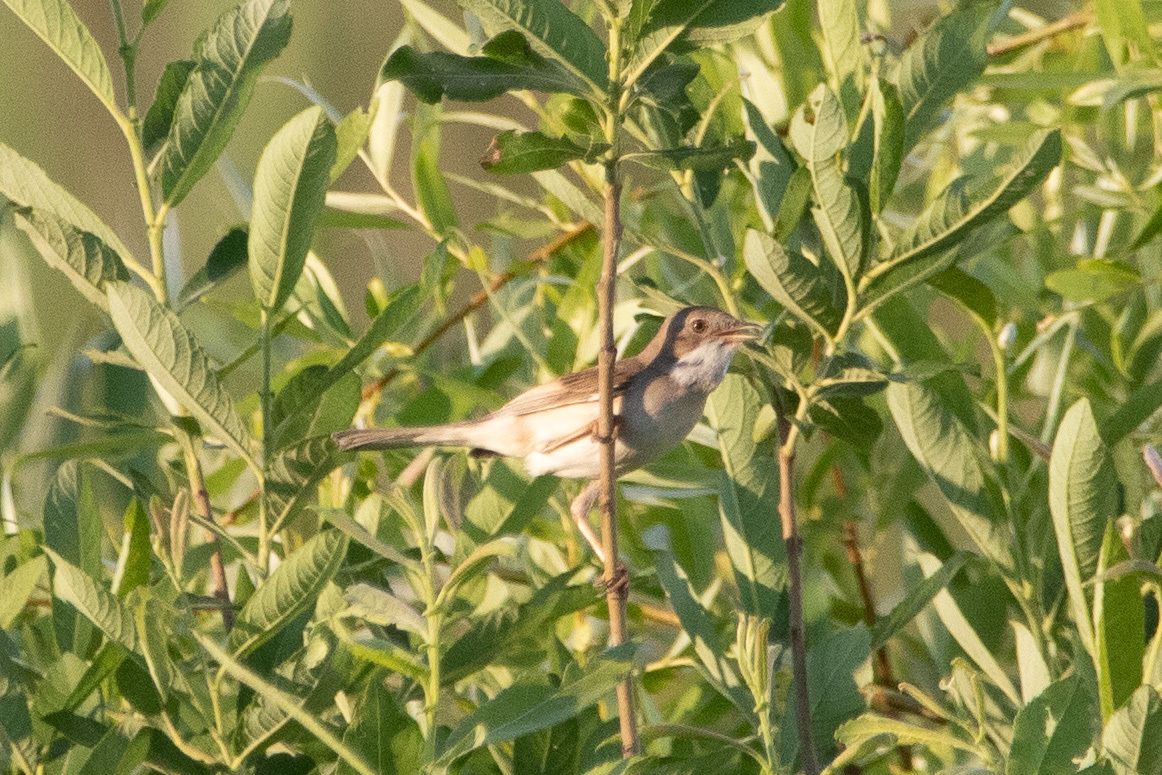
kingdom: Animalia
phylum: Chordata
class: Aves
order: Passeriformes
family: Sylviidae
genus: Sylvia
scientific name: Sylvia communis
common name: Common whitethroat
